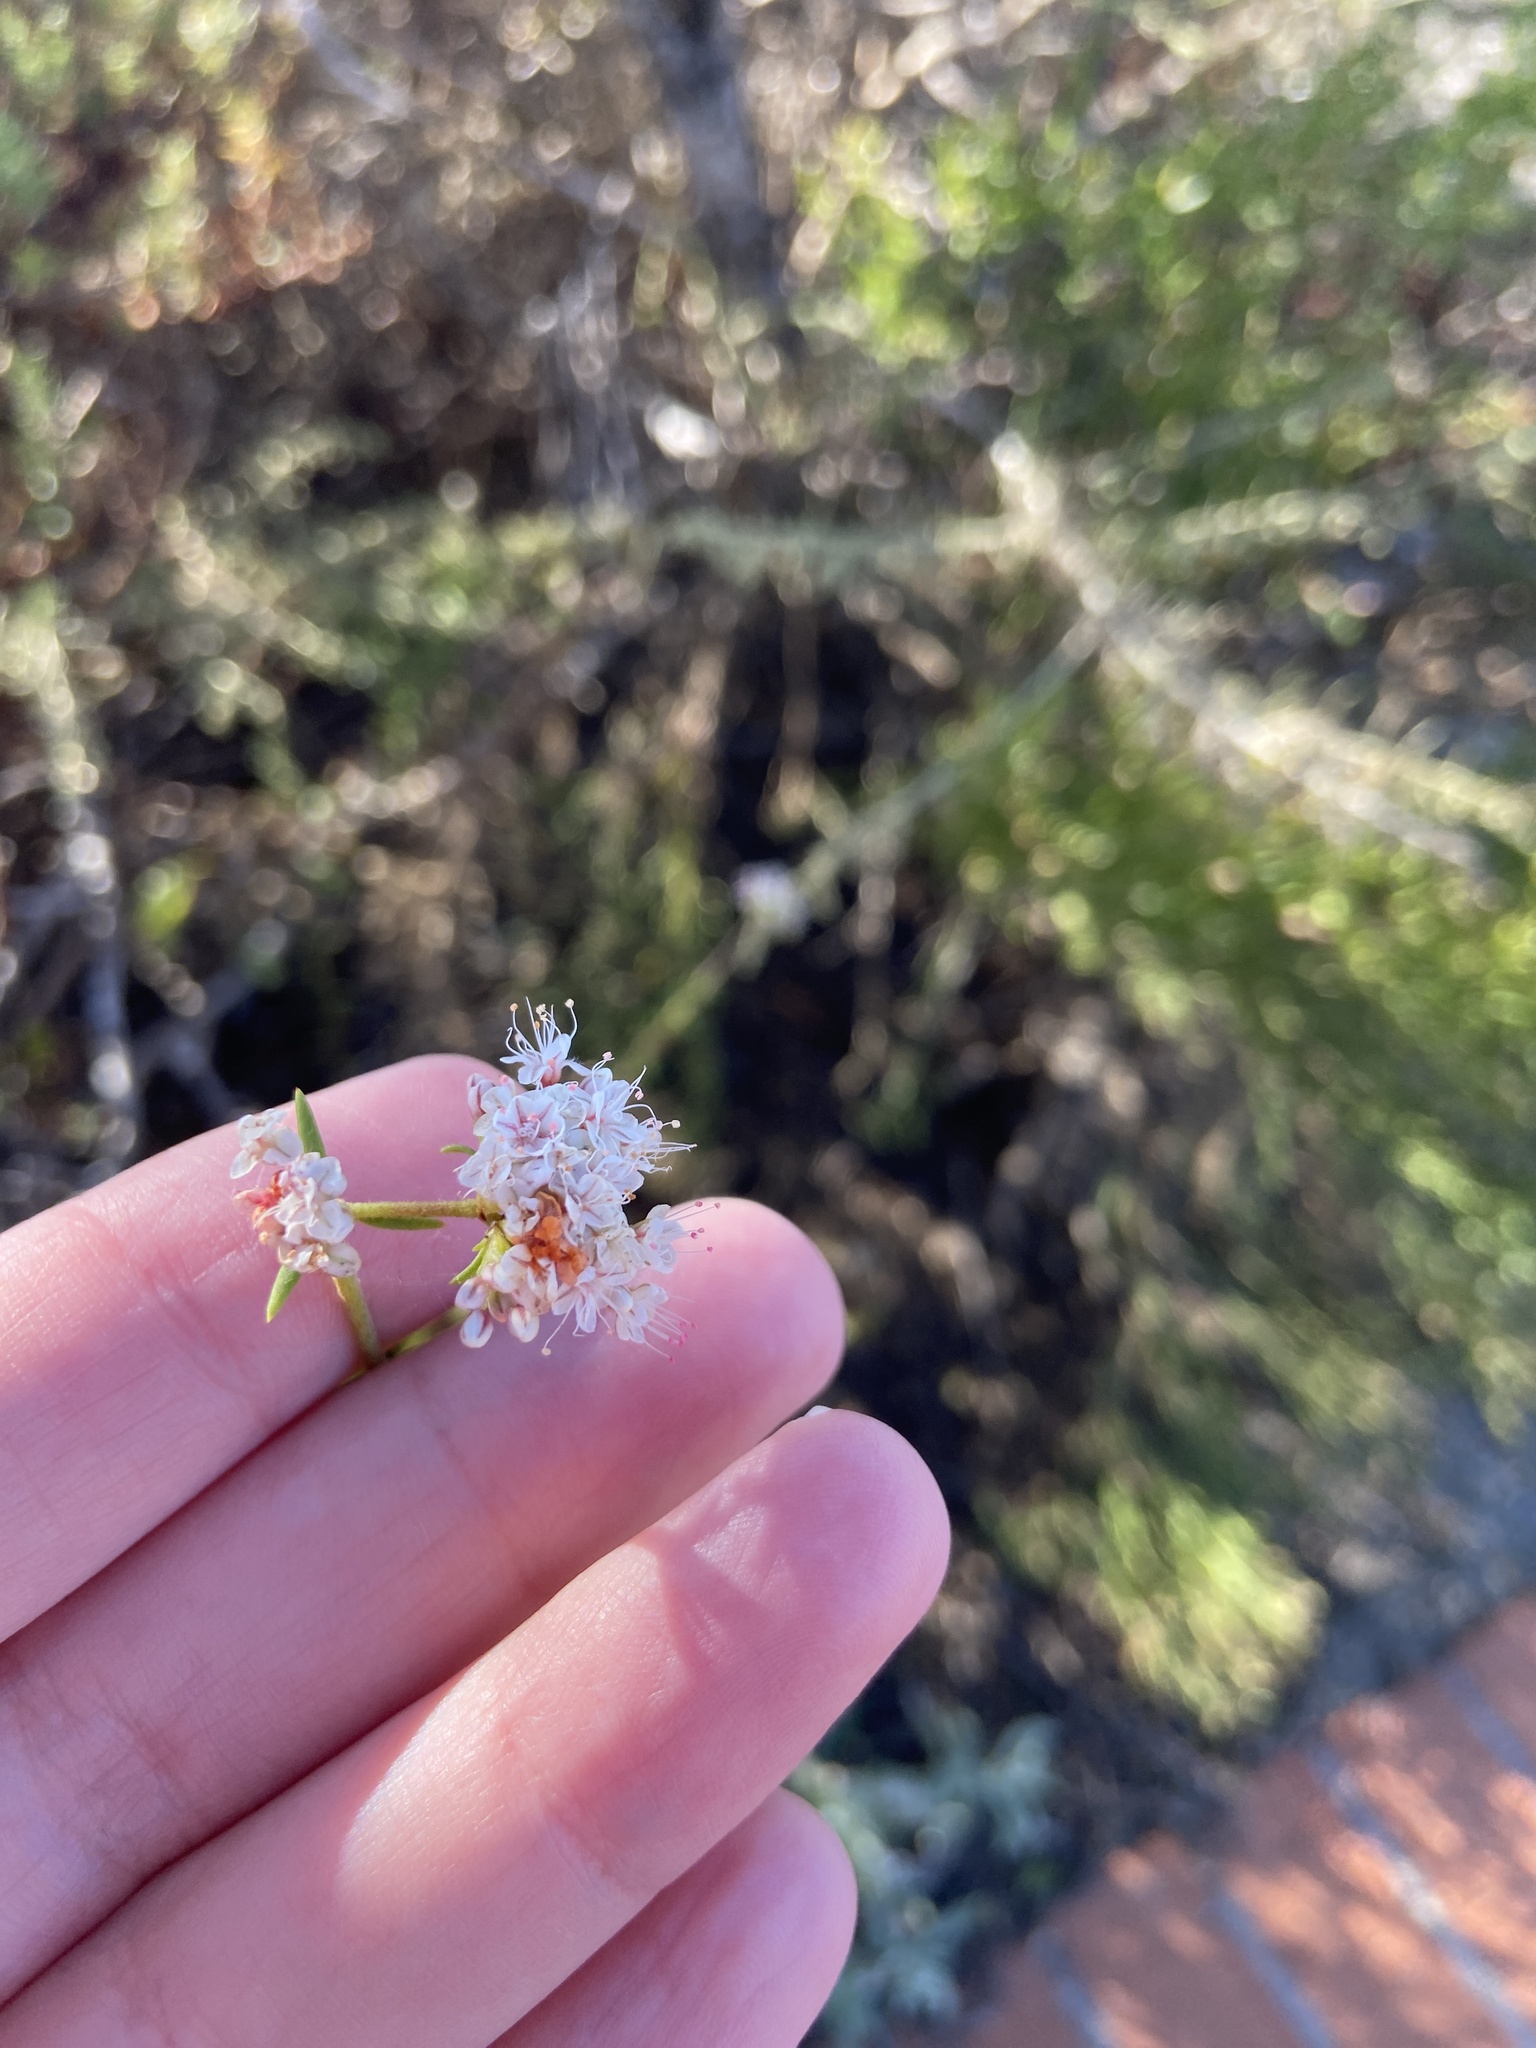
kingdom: Plantae
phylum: Tracheophyta
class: Magnoliopsida
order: Caryophyllales
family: Polygonaceae
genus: Eriogonum
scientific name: Eriogonum fasciculatum
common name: California wild buckwheat
